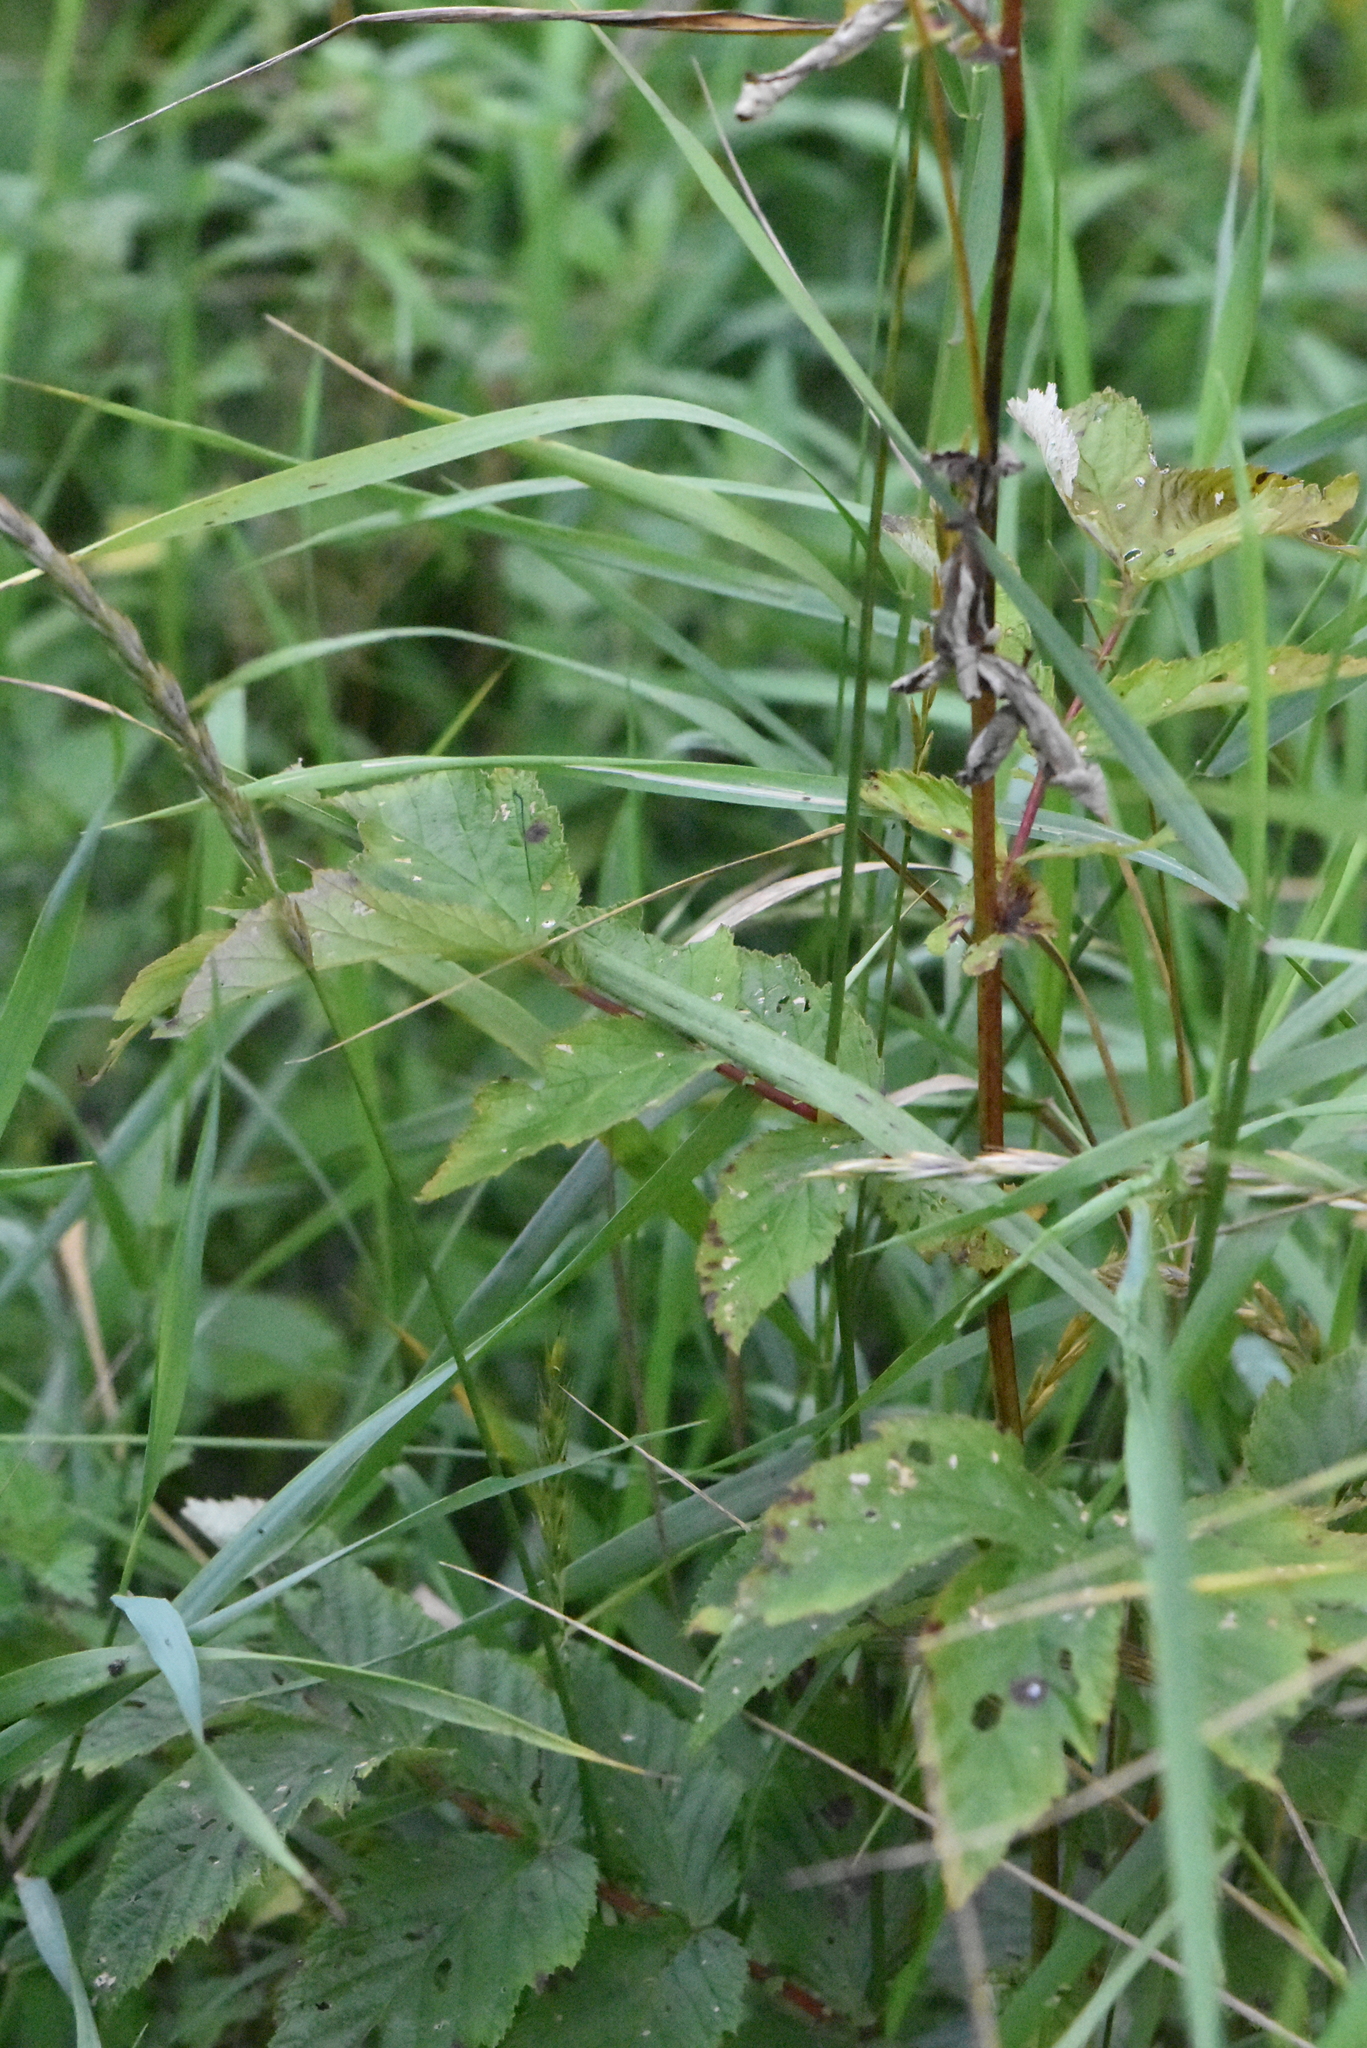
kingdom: Plantae
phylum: Tracheophyta
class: Magnoliopsida
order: Rosales
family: Rosaceae
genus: Filipendula
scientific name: Filipendula ulmaria
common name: Meadowsweet
